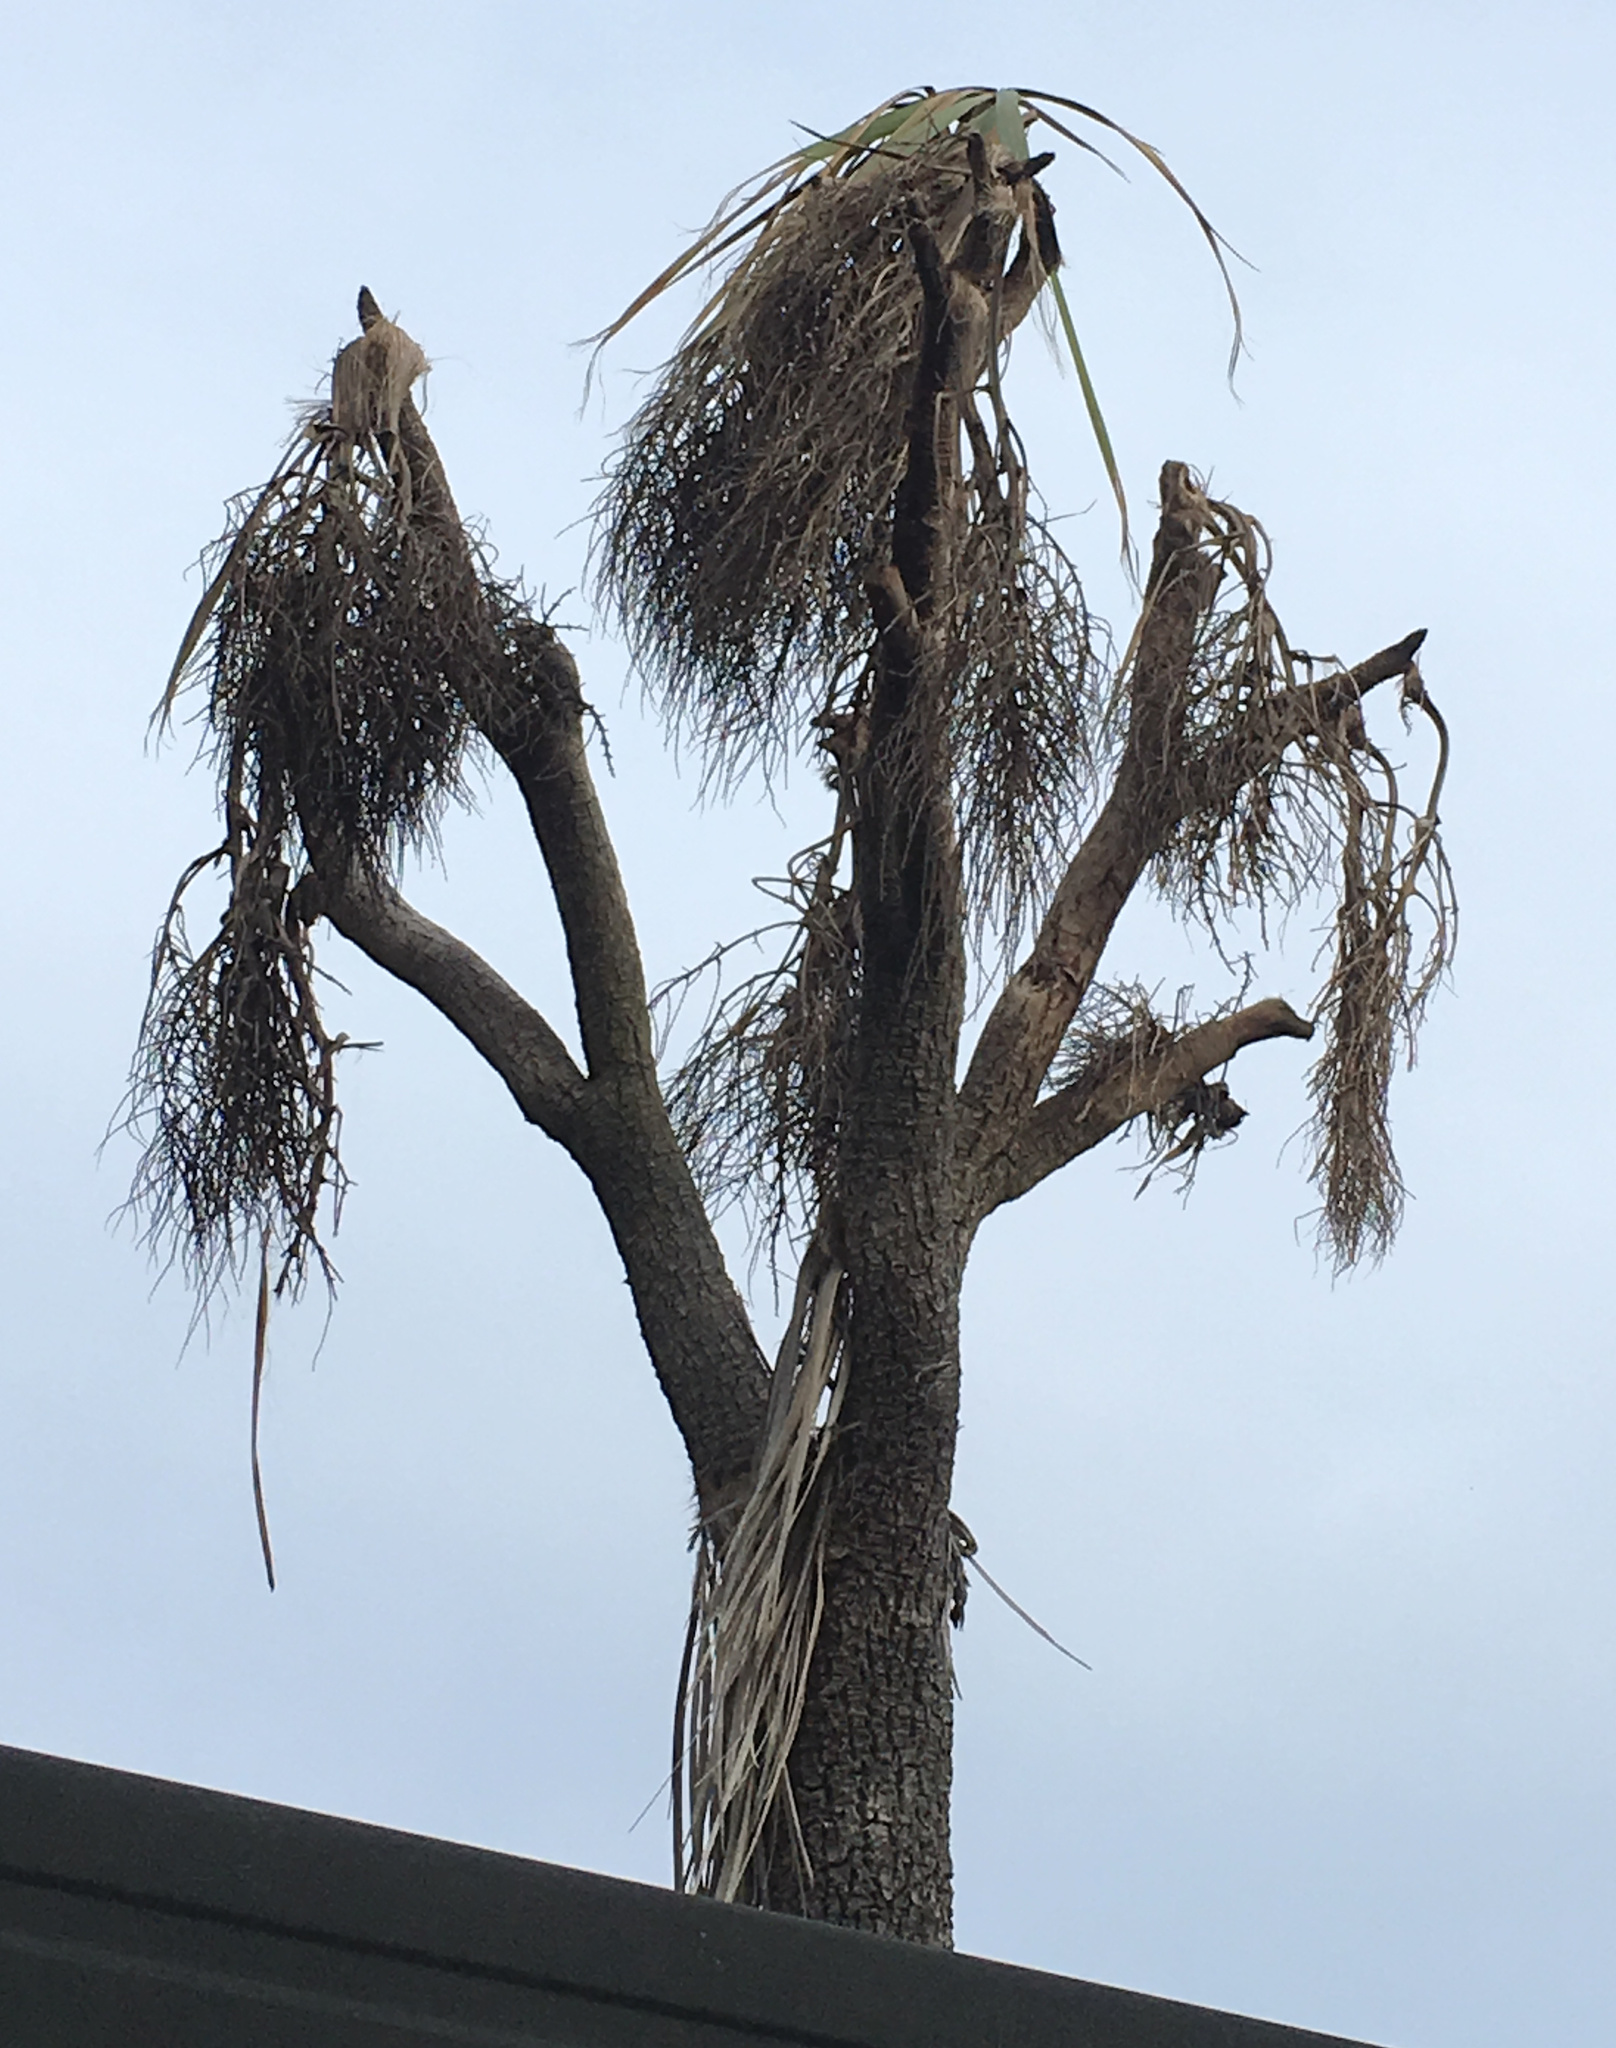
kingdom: Plantae
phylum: Tracheophyta
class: Liliopsida
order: Asparagales
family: Asparagaceae
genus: Cordyline
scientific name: Cordyline australis
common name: Cabbage-palm
